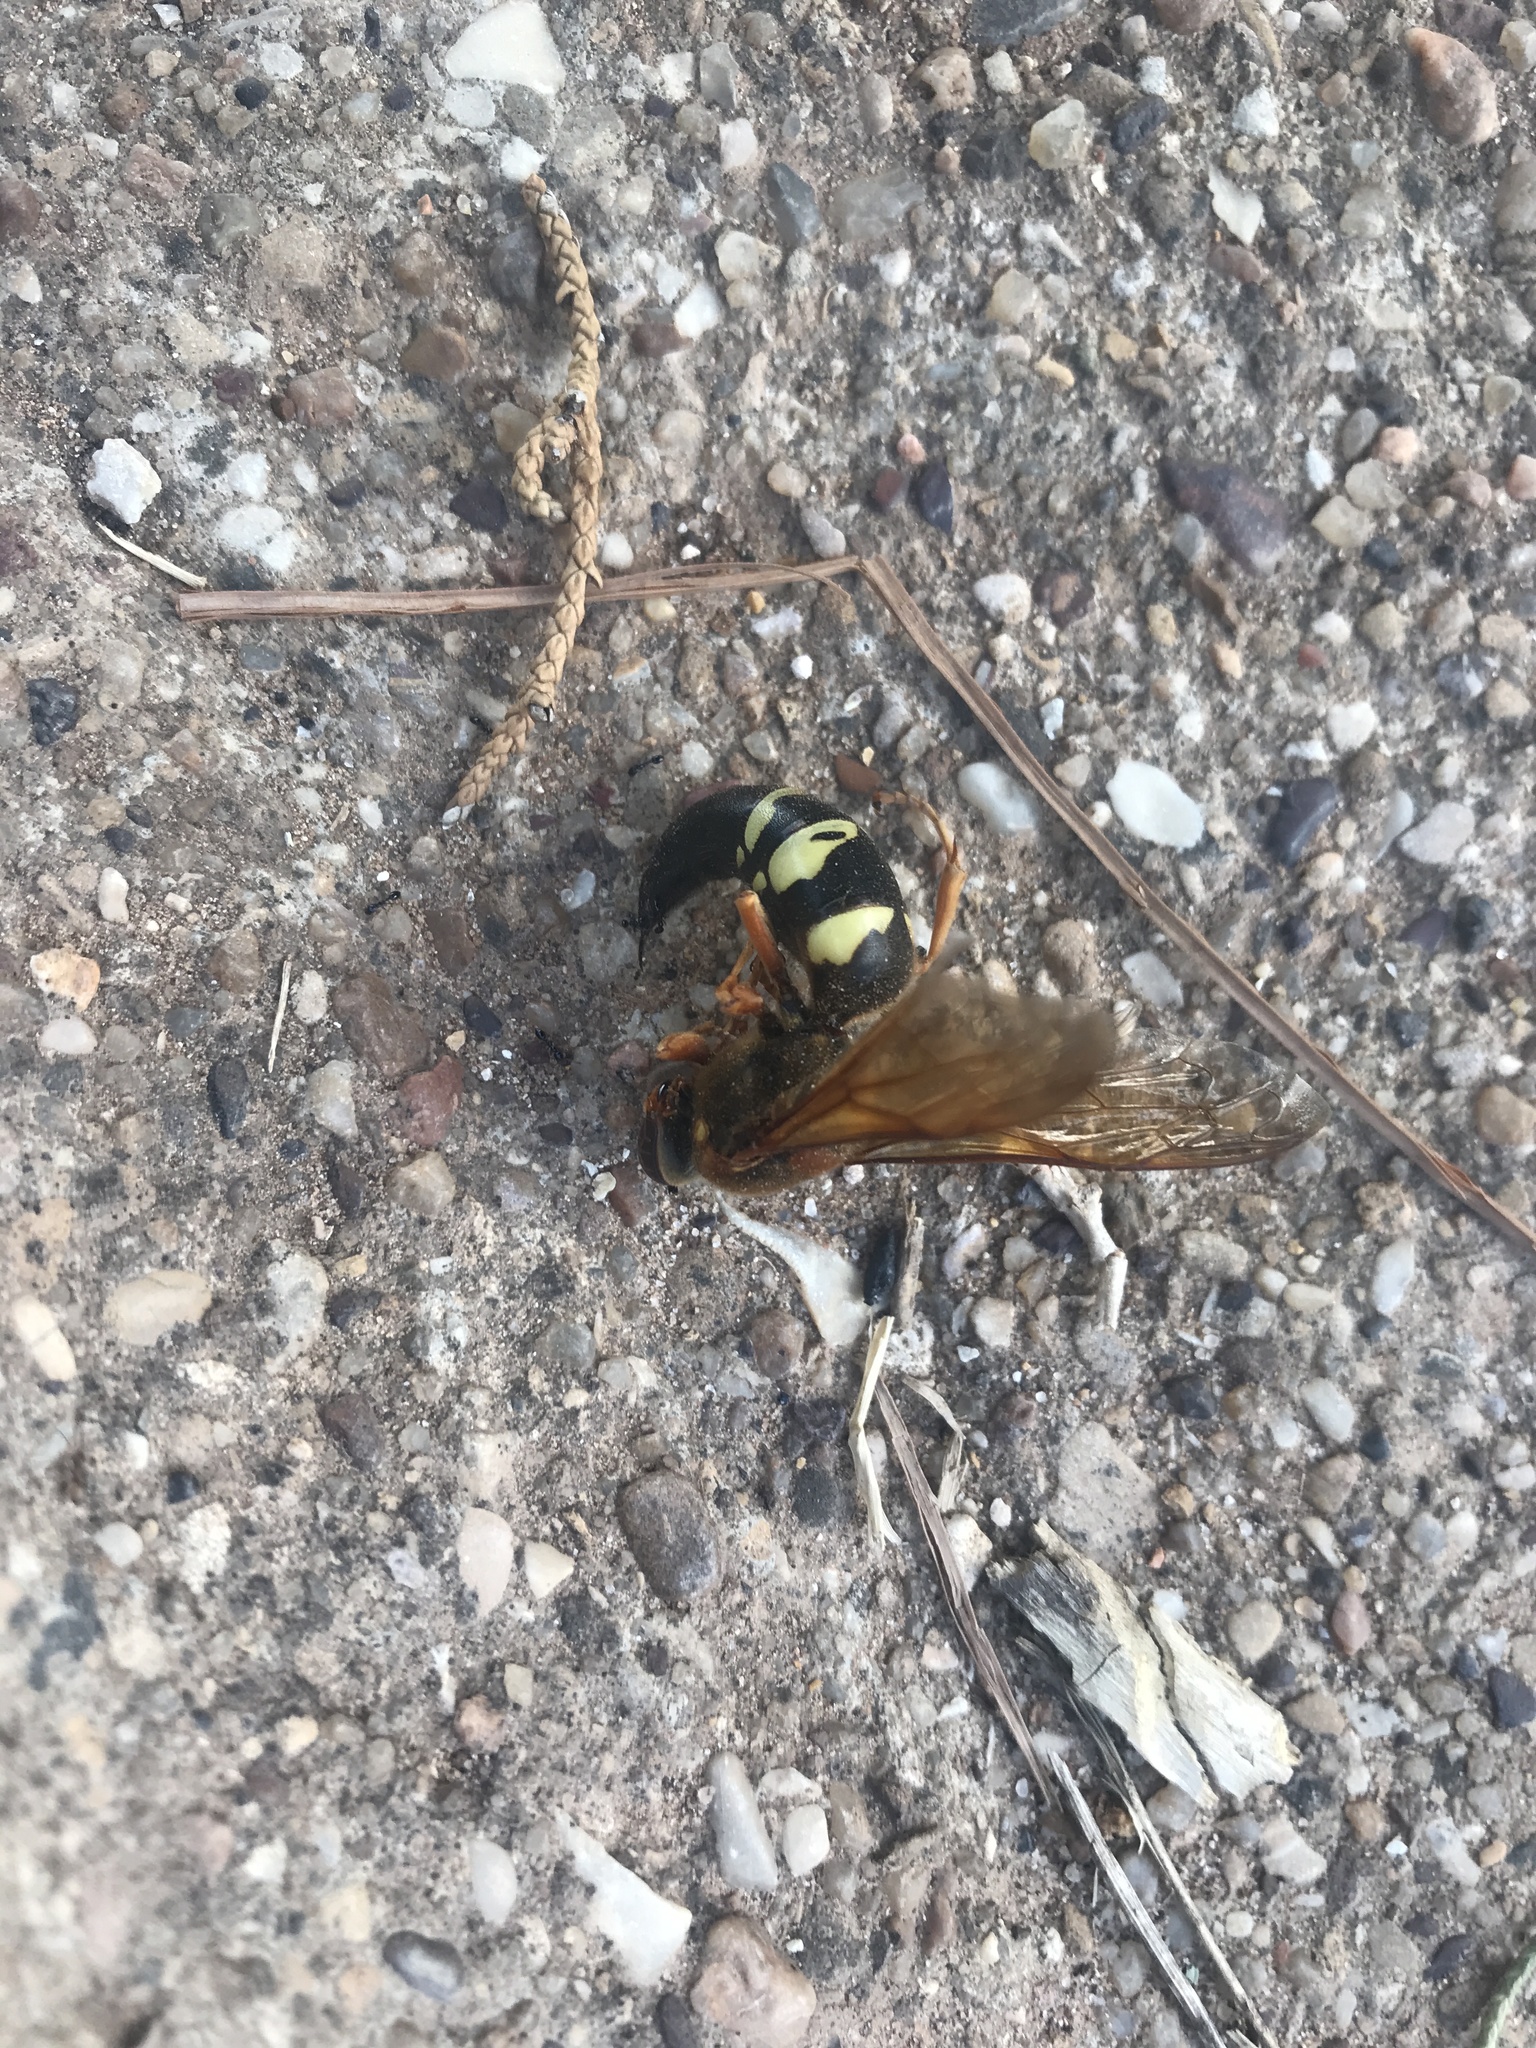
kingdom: Animalia
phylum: Arthropoda
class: Insecta
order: Hymenoptera
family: Crabronidae
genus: Sphecius
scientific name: Sphecius speciosus
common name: Cicada killer
